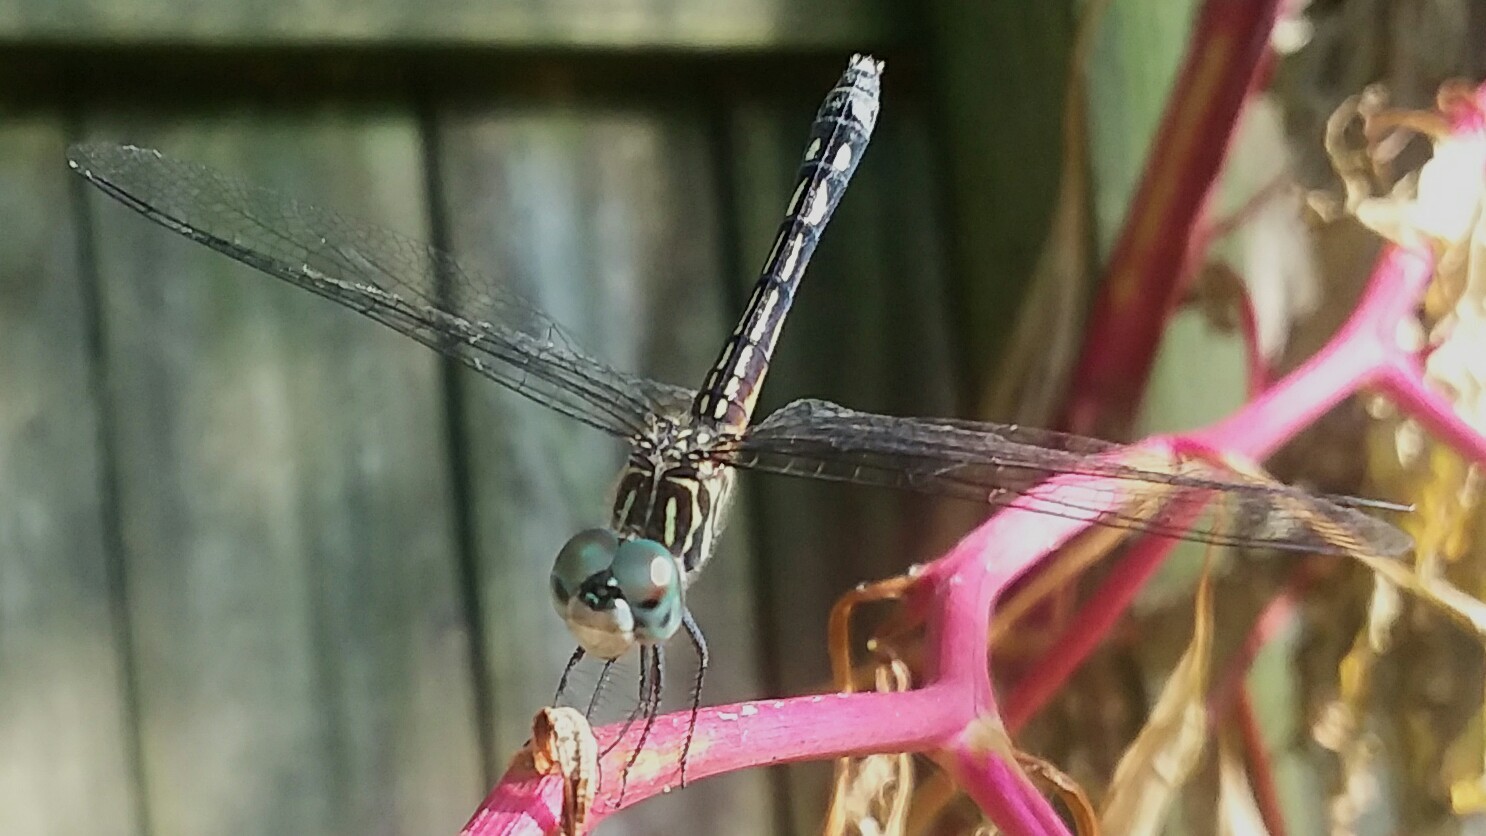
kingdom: Animalia
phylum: Arthropoda
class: Insecta
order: Odonata
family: Libellulidae
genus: Pachydiplax
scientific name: Pachydiplax longipennis
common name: Blue dasher
